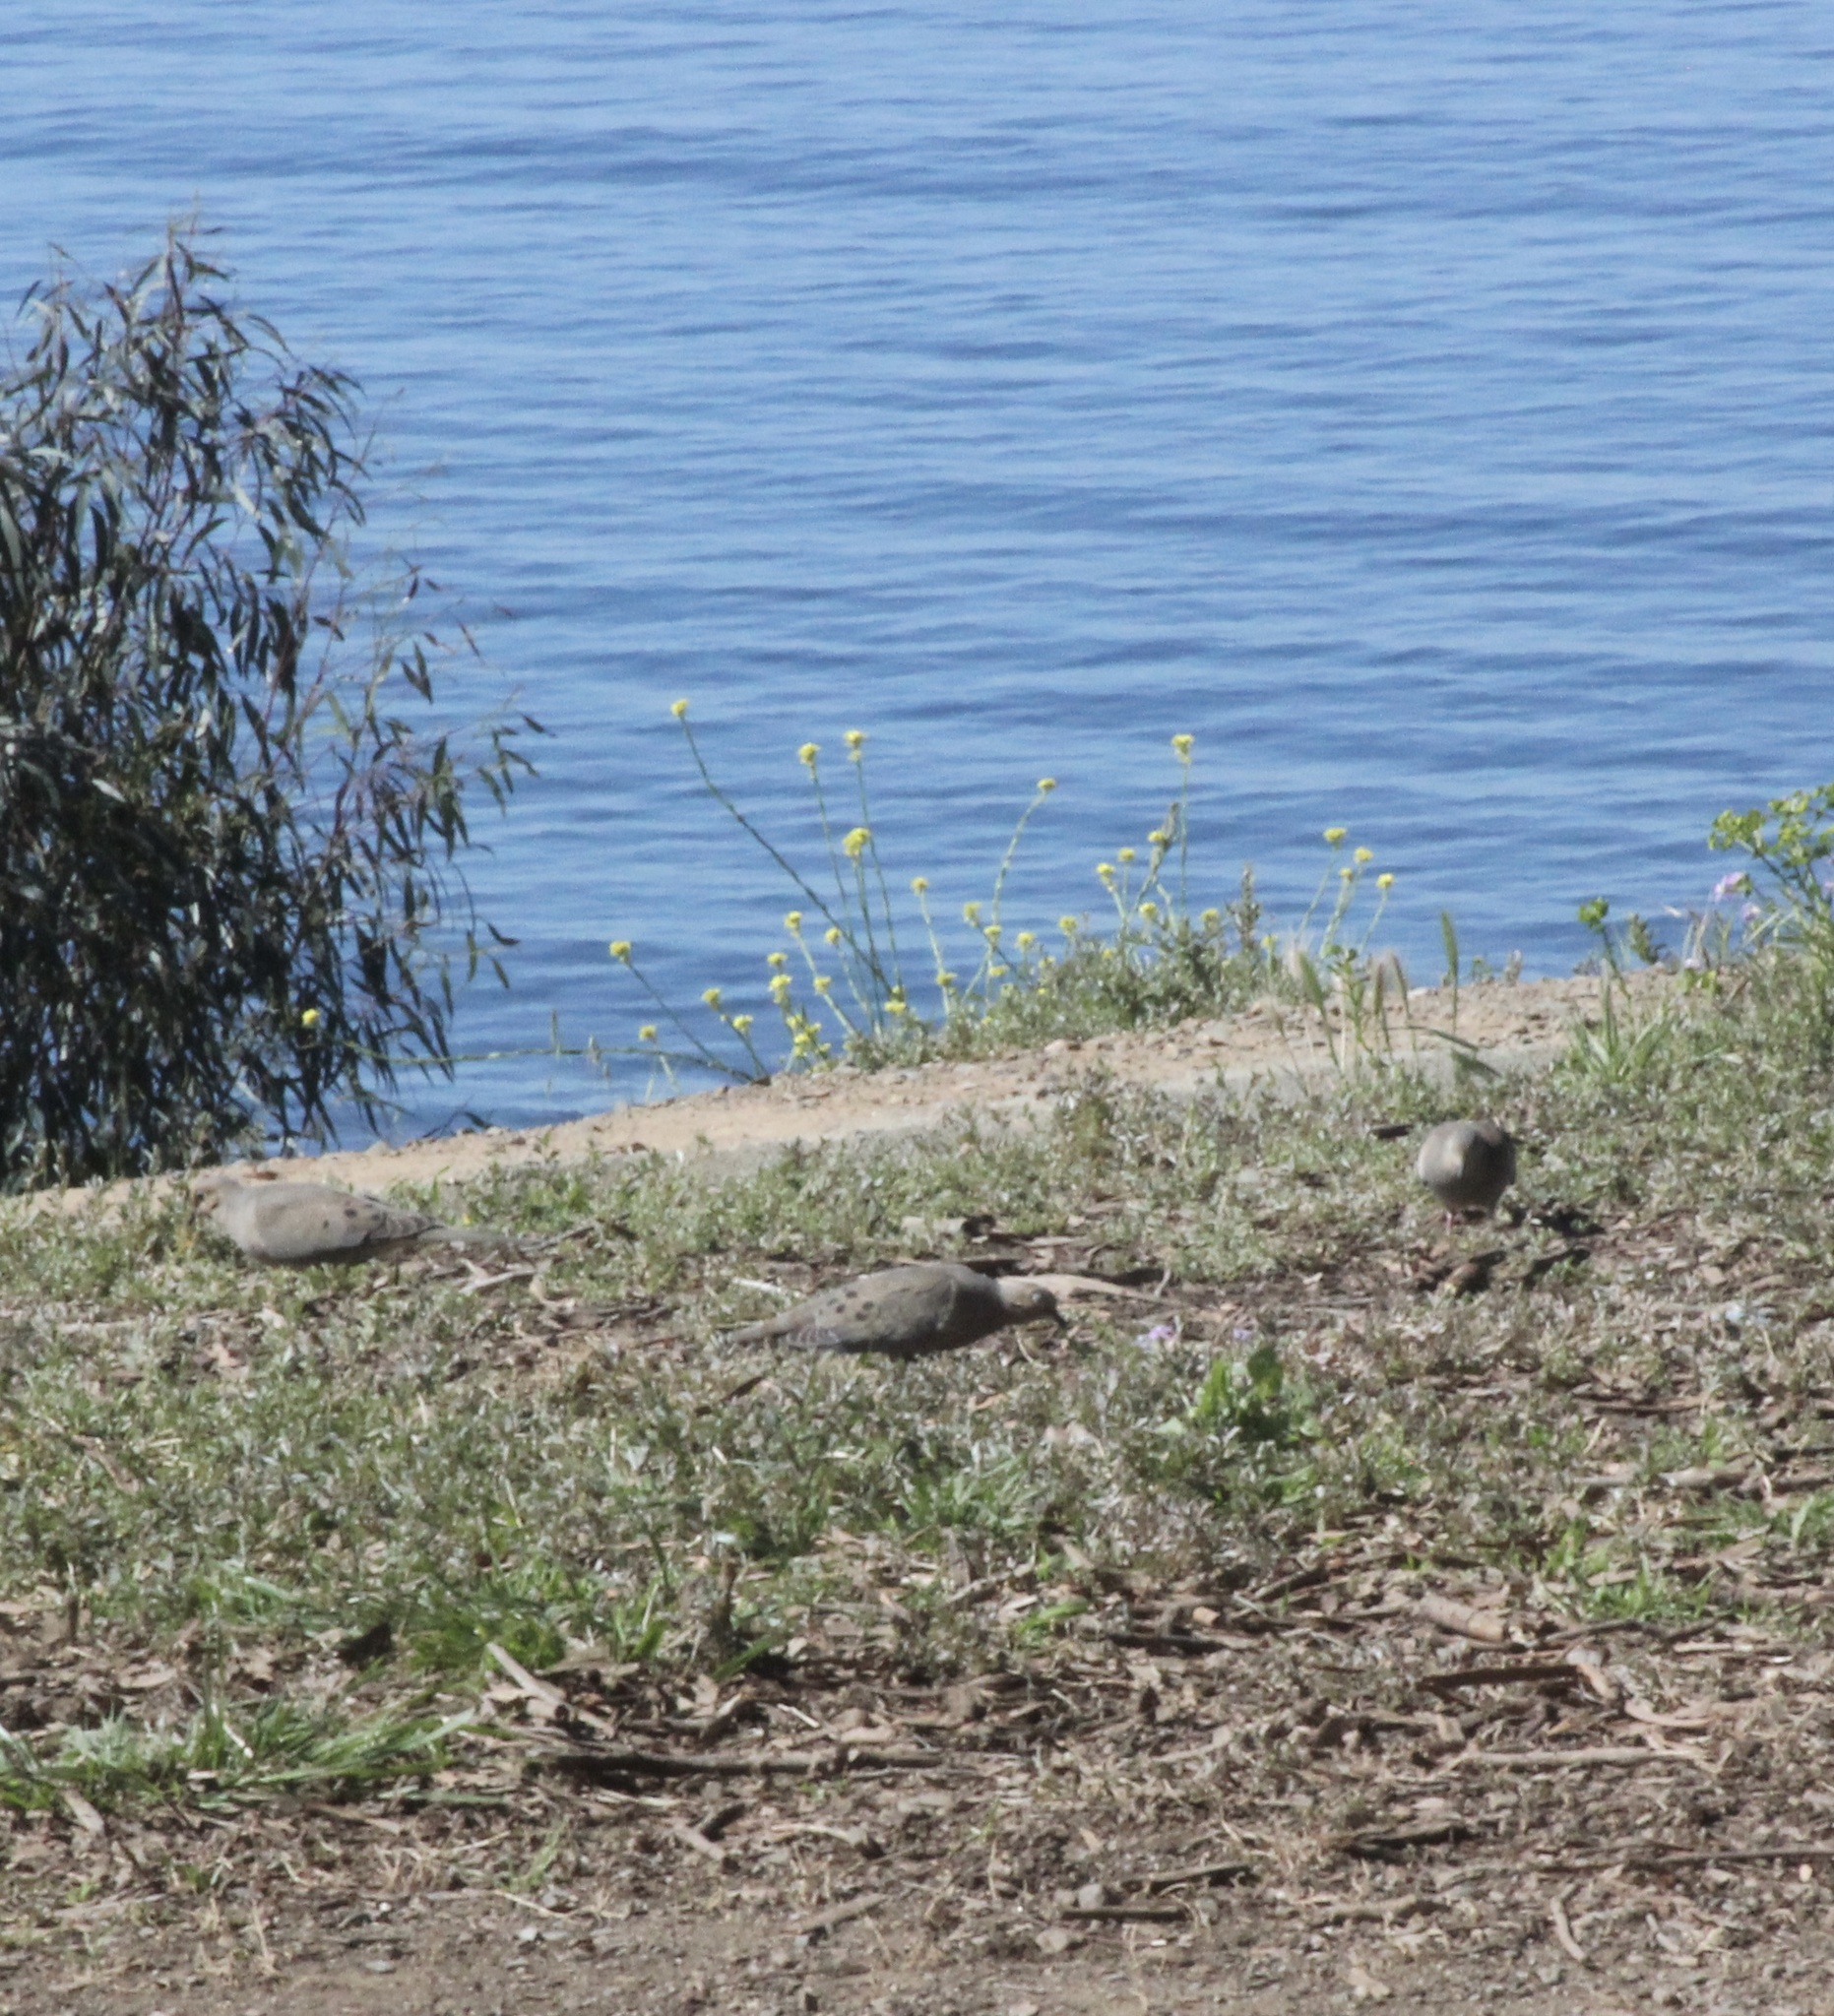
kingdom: Animalia
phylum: Chordata
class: Aves
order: Columbiformes
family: Columbidae
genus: Zenaida
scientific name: Zenaida macroura
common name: Mourning dove
